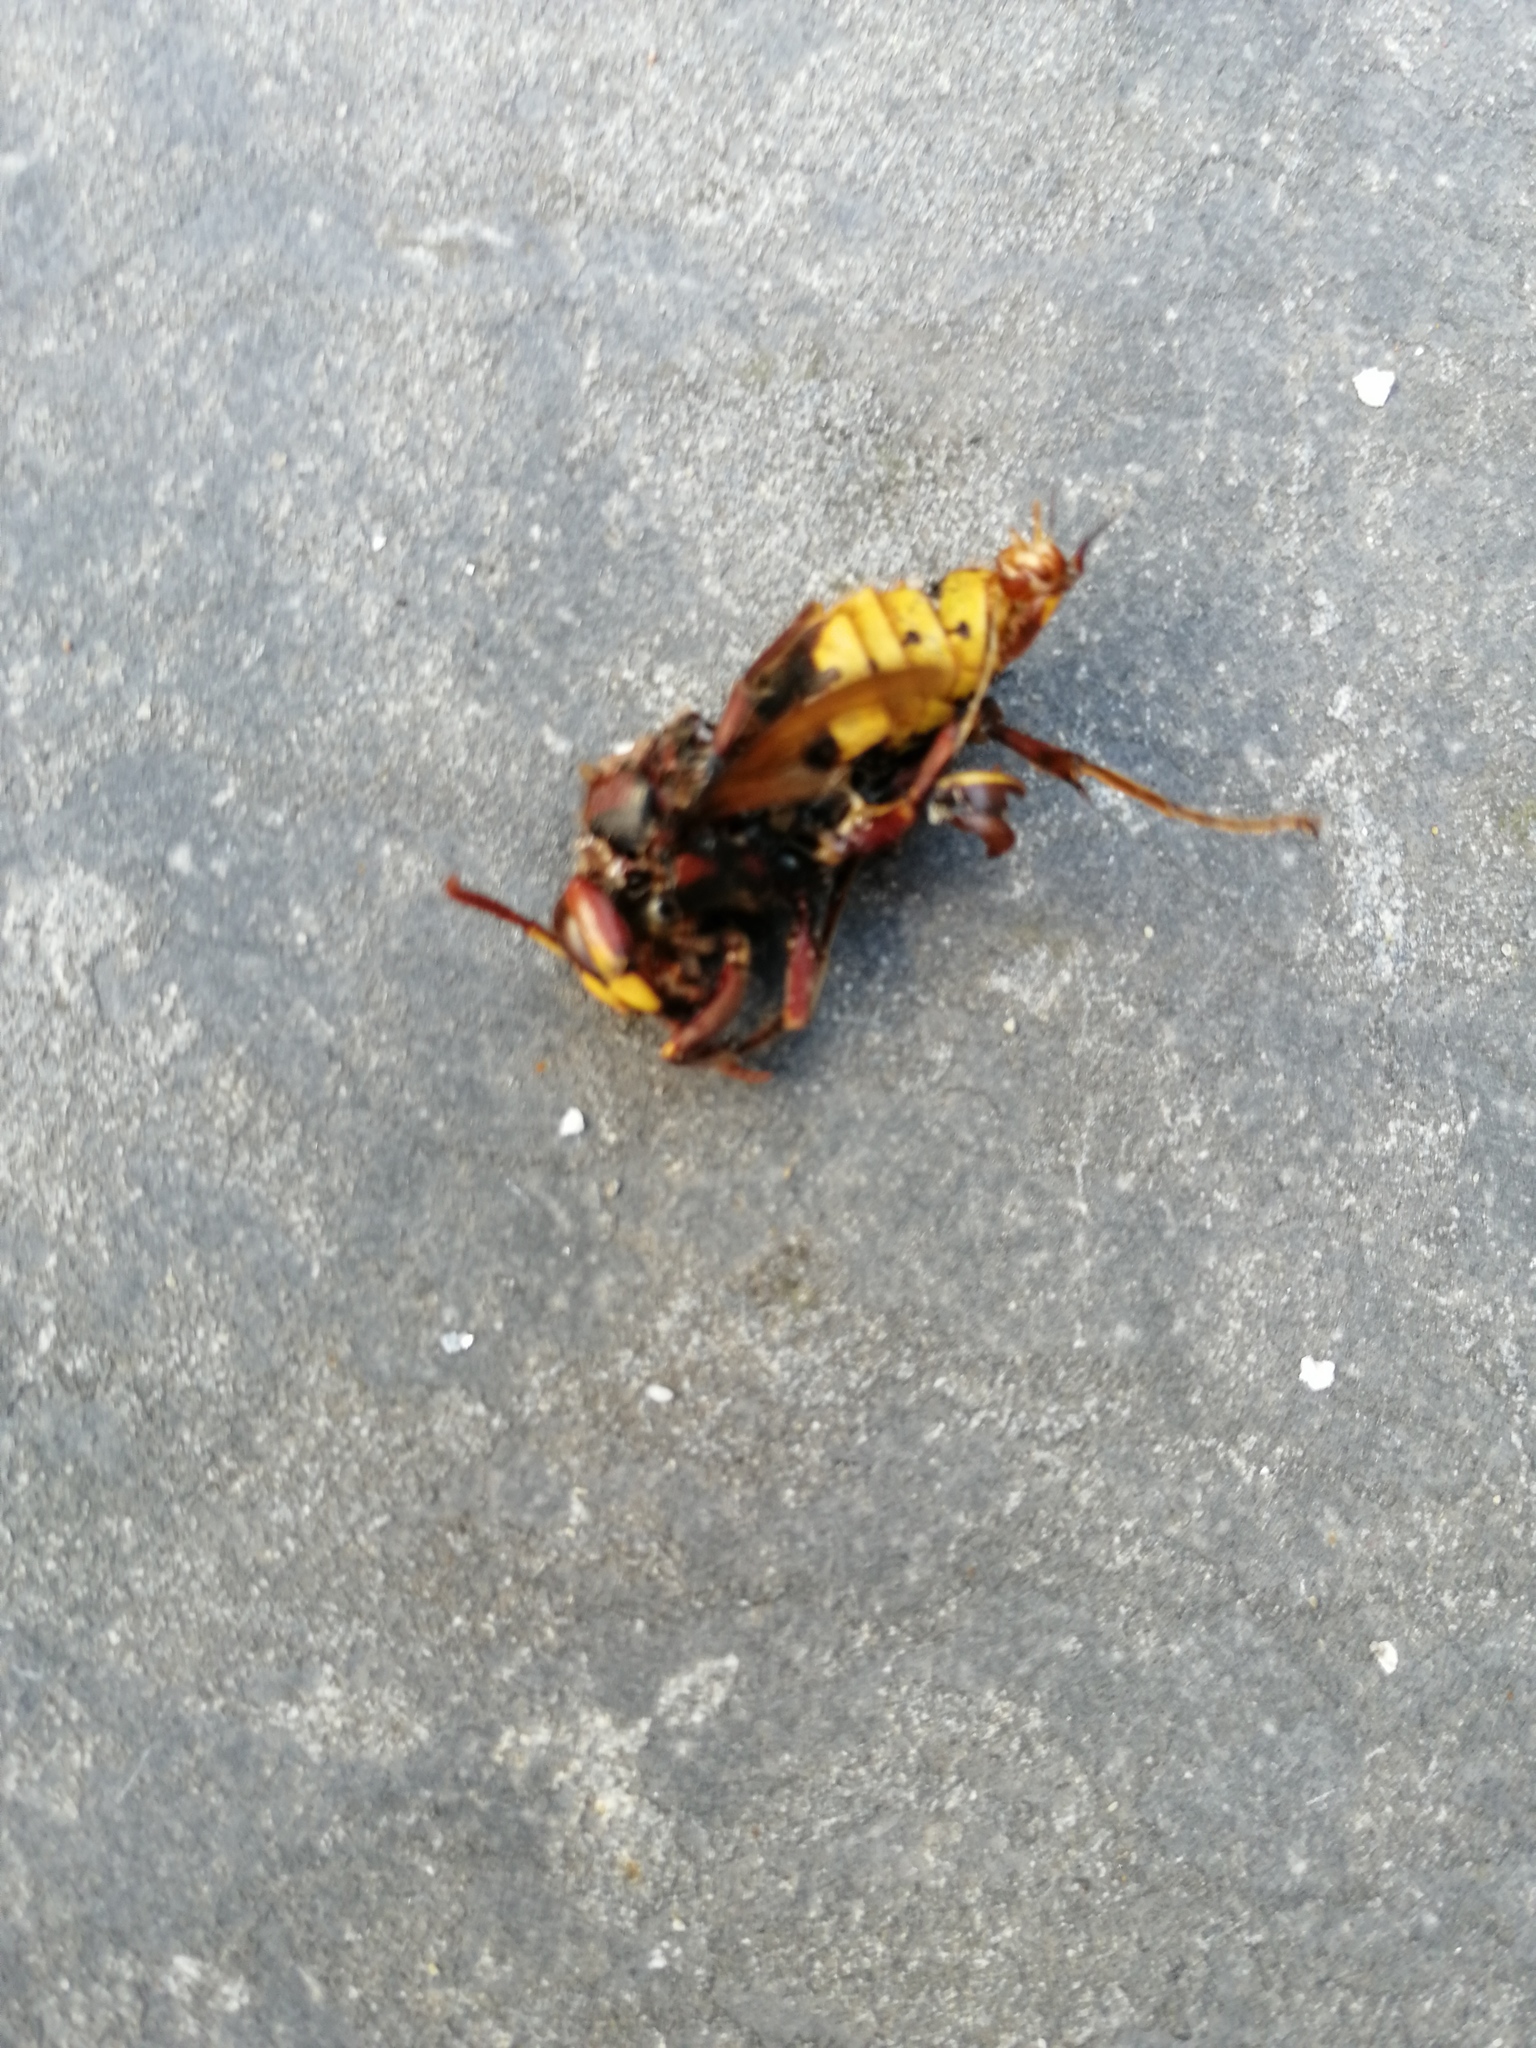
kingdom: Animalia
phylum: Arthropoda
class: Insecta
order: Hymenoptera
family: Vespidae
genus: Vespa
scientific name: Vespa crabro
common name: Hornet
